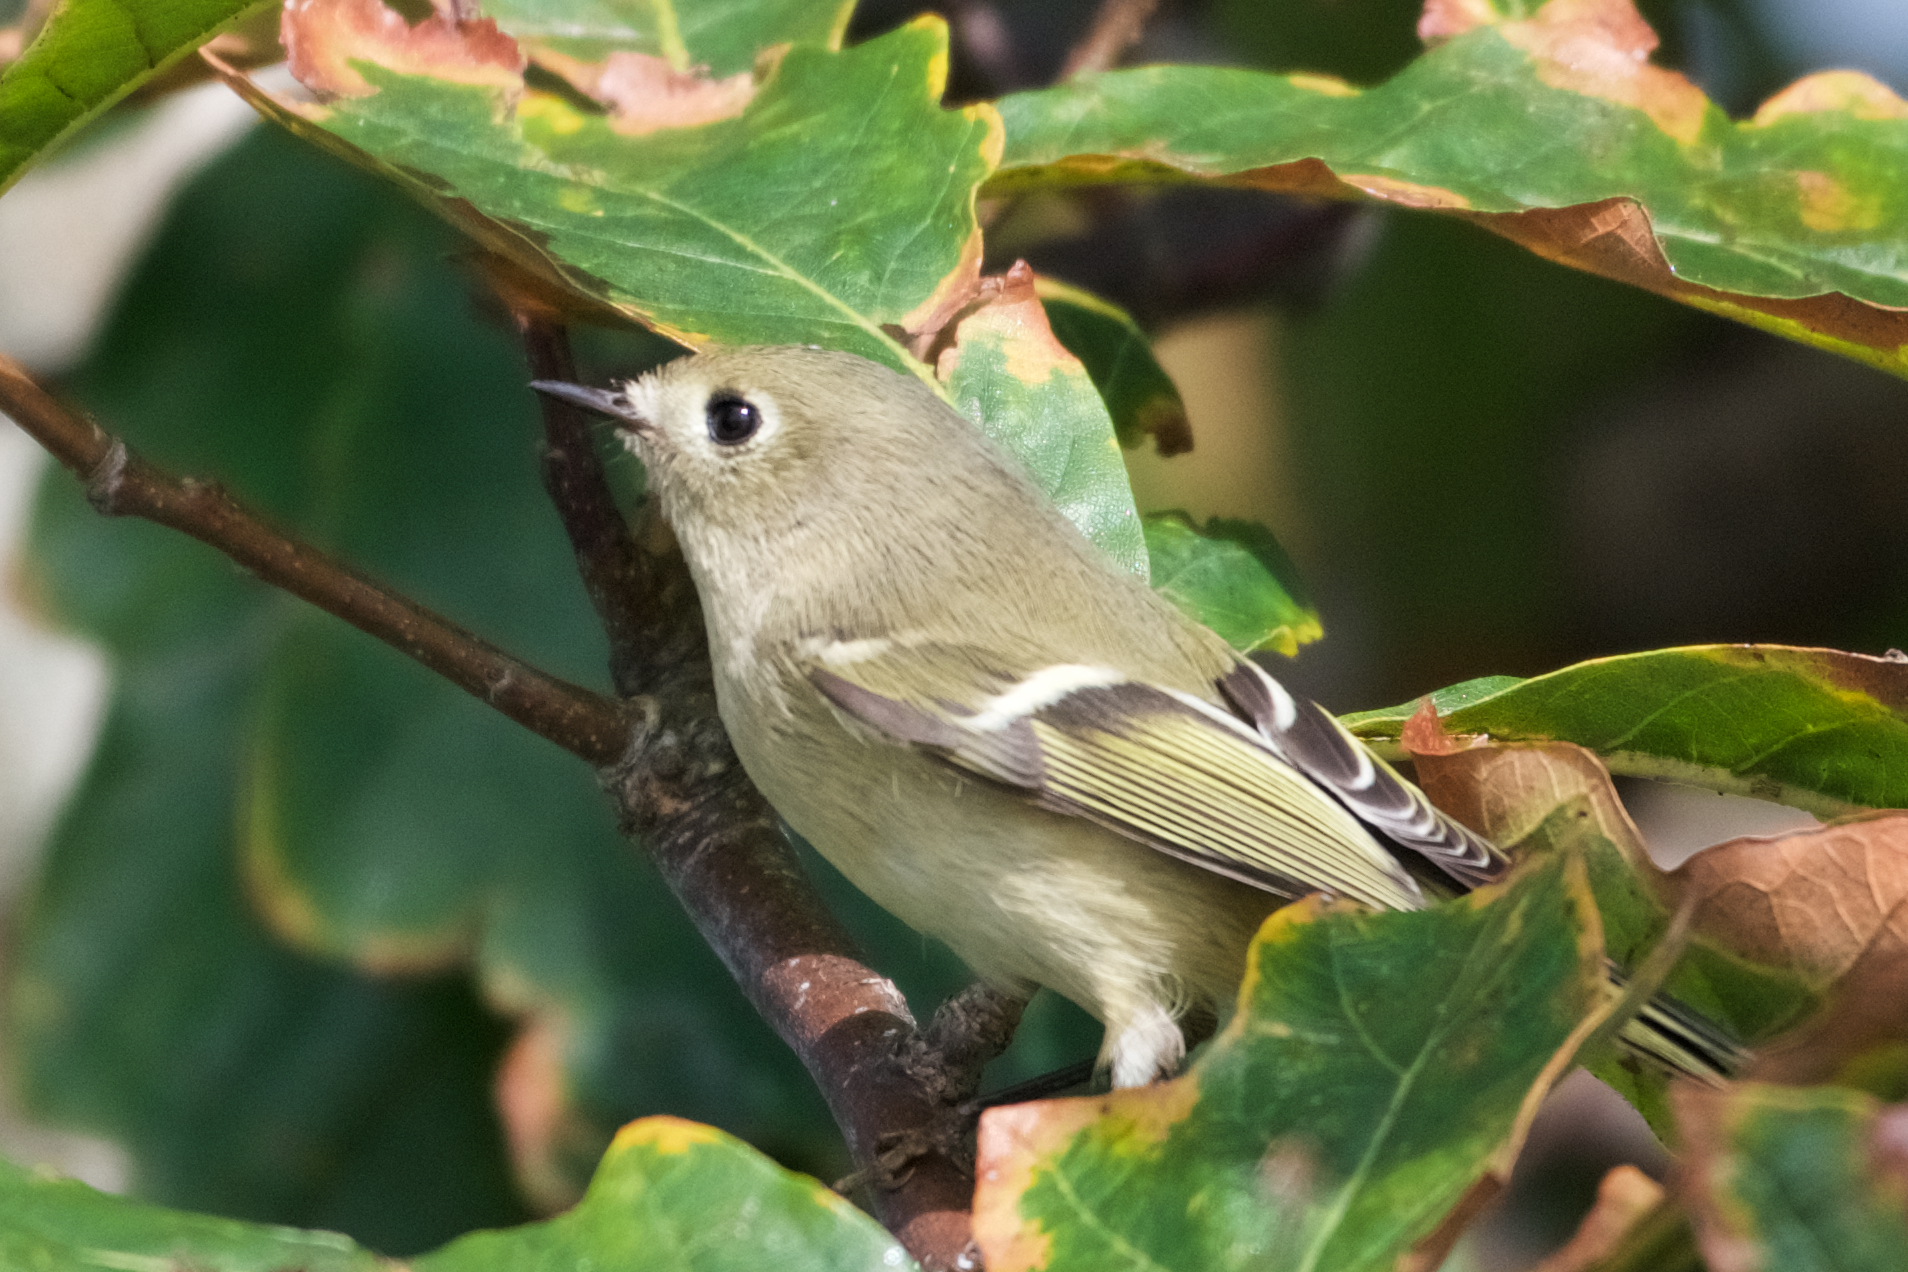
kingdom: Animalia
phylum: Chordata
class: Aves
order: Passeriformes
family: Regulidae
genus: Regulus
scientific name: Regulus calendula
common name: Ruby-crowned kinglet
